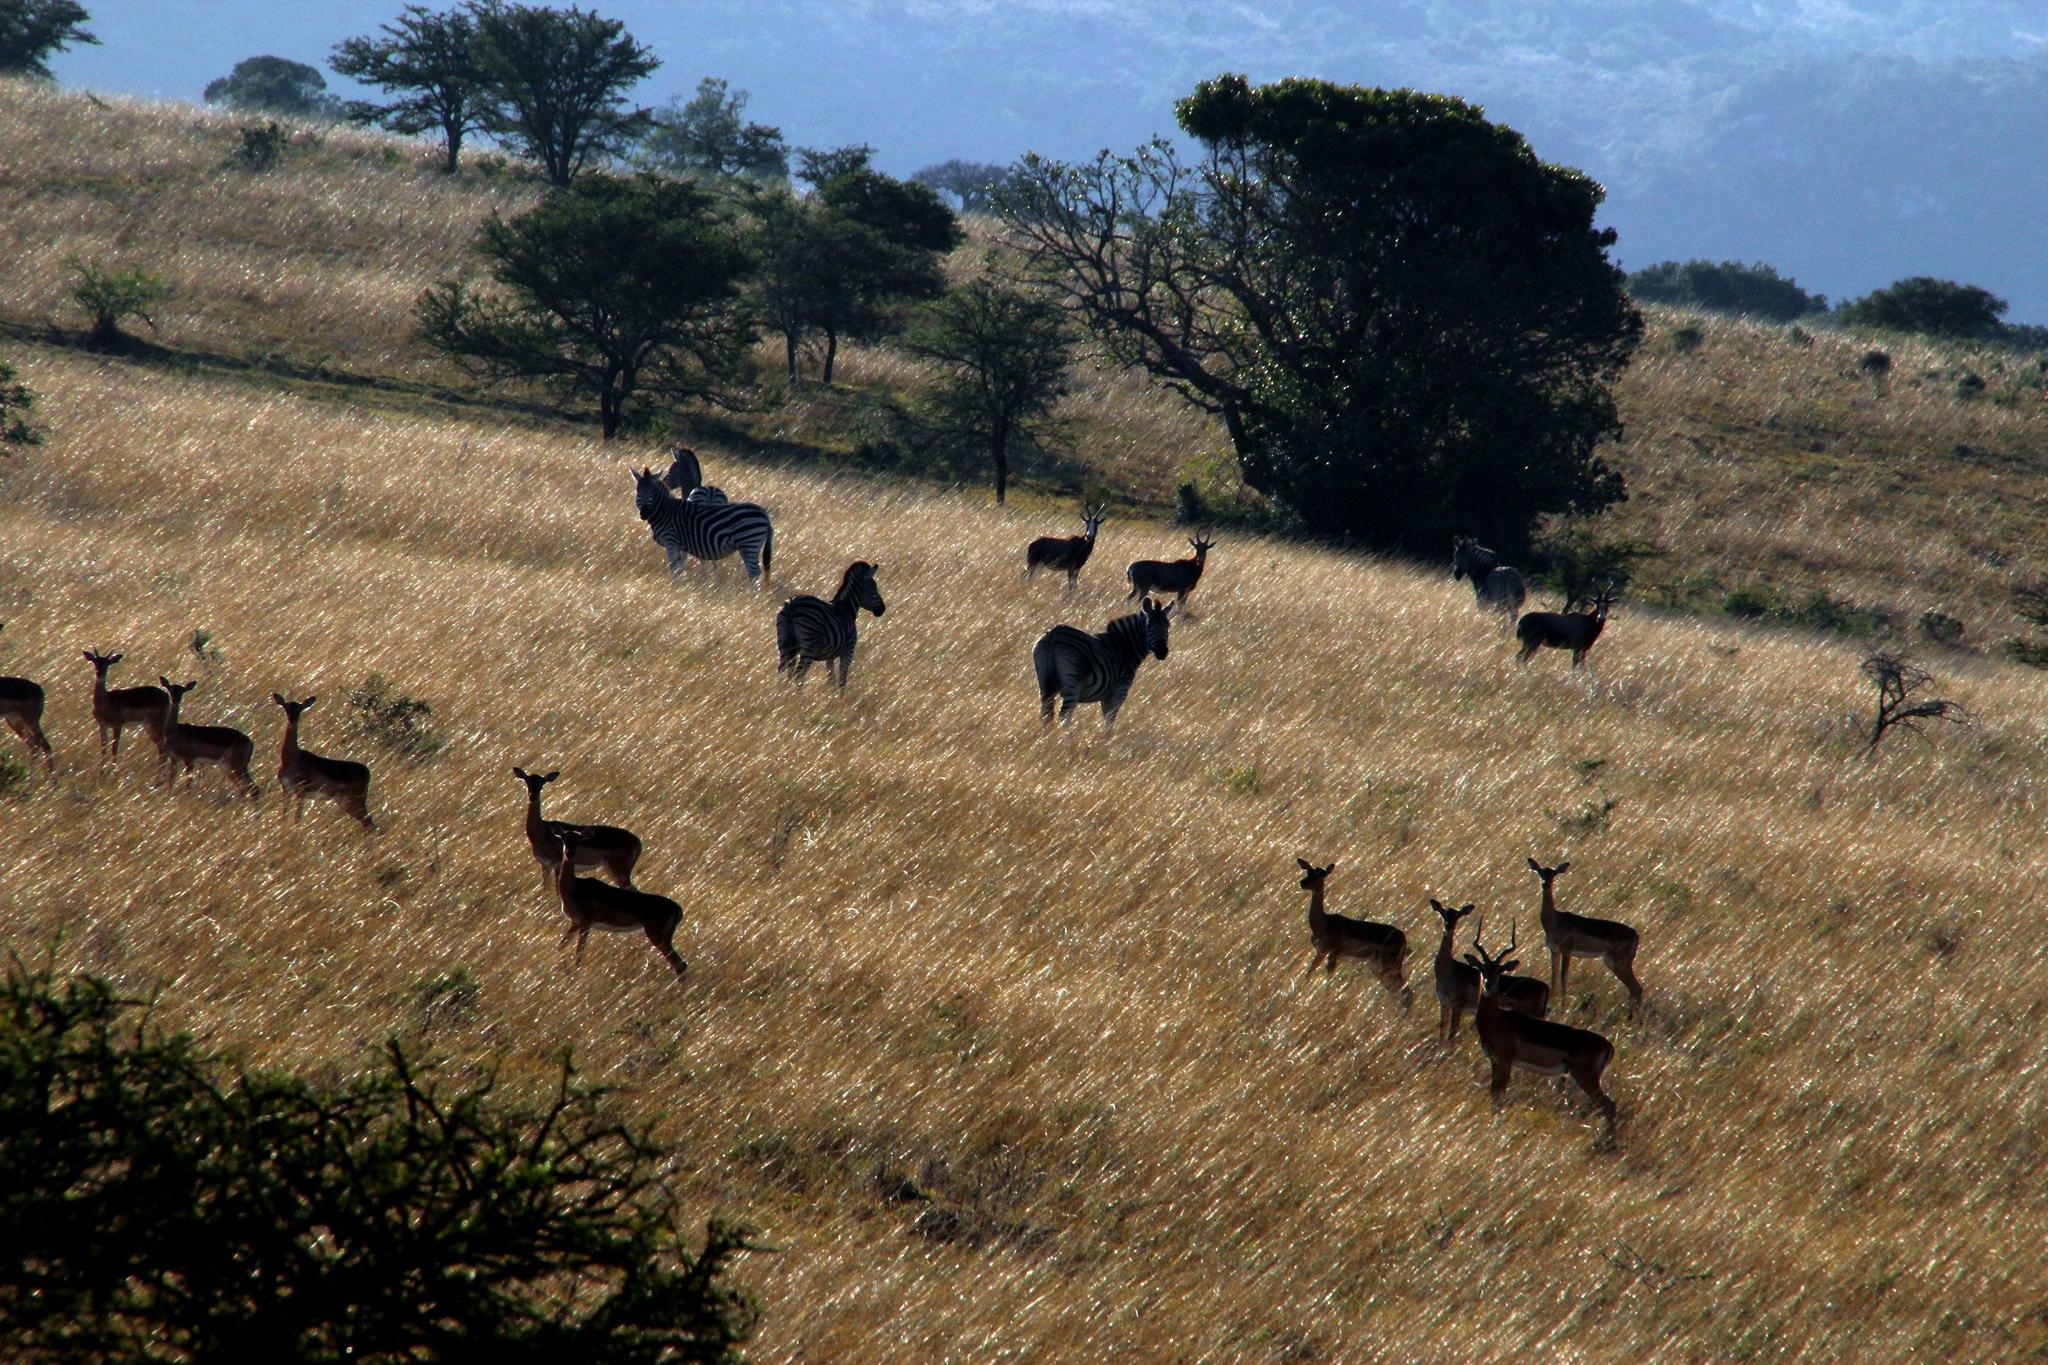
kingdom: Animalia
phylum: Chordata
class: Mammalia
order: Perissodactyla
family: Equidae
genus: Equus
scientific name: Equus quagga
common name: Plains zebra
